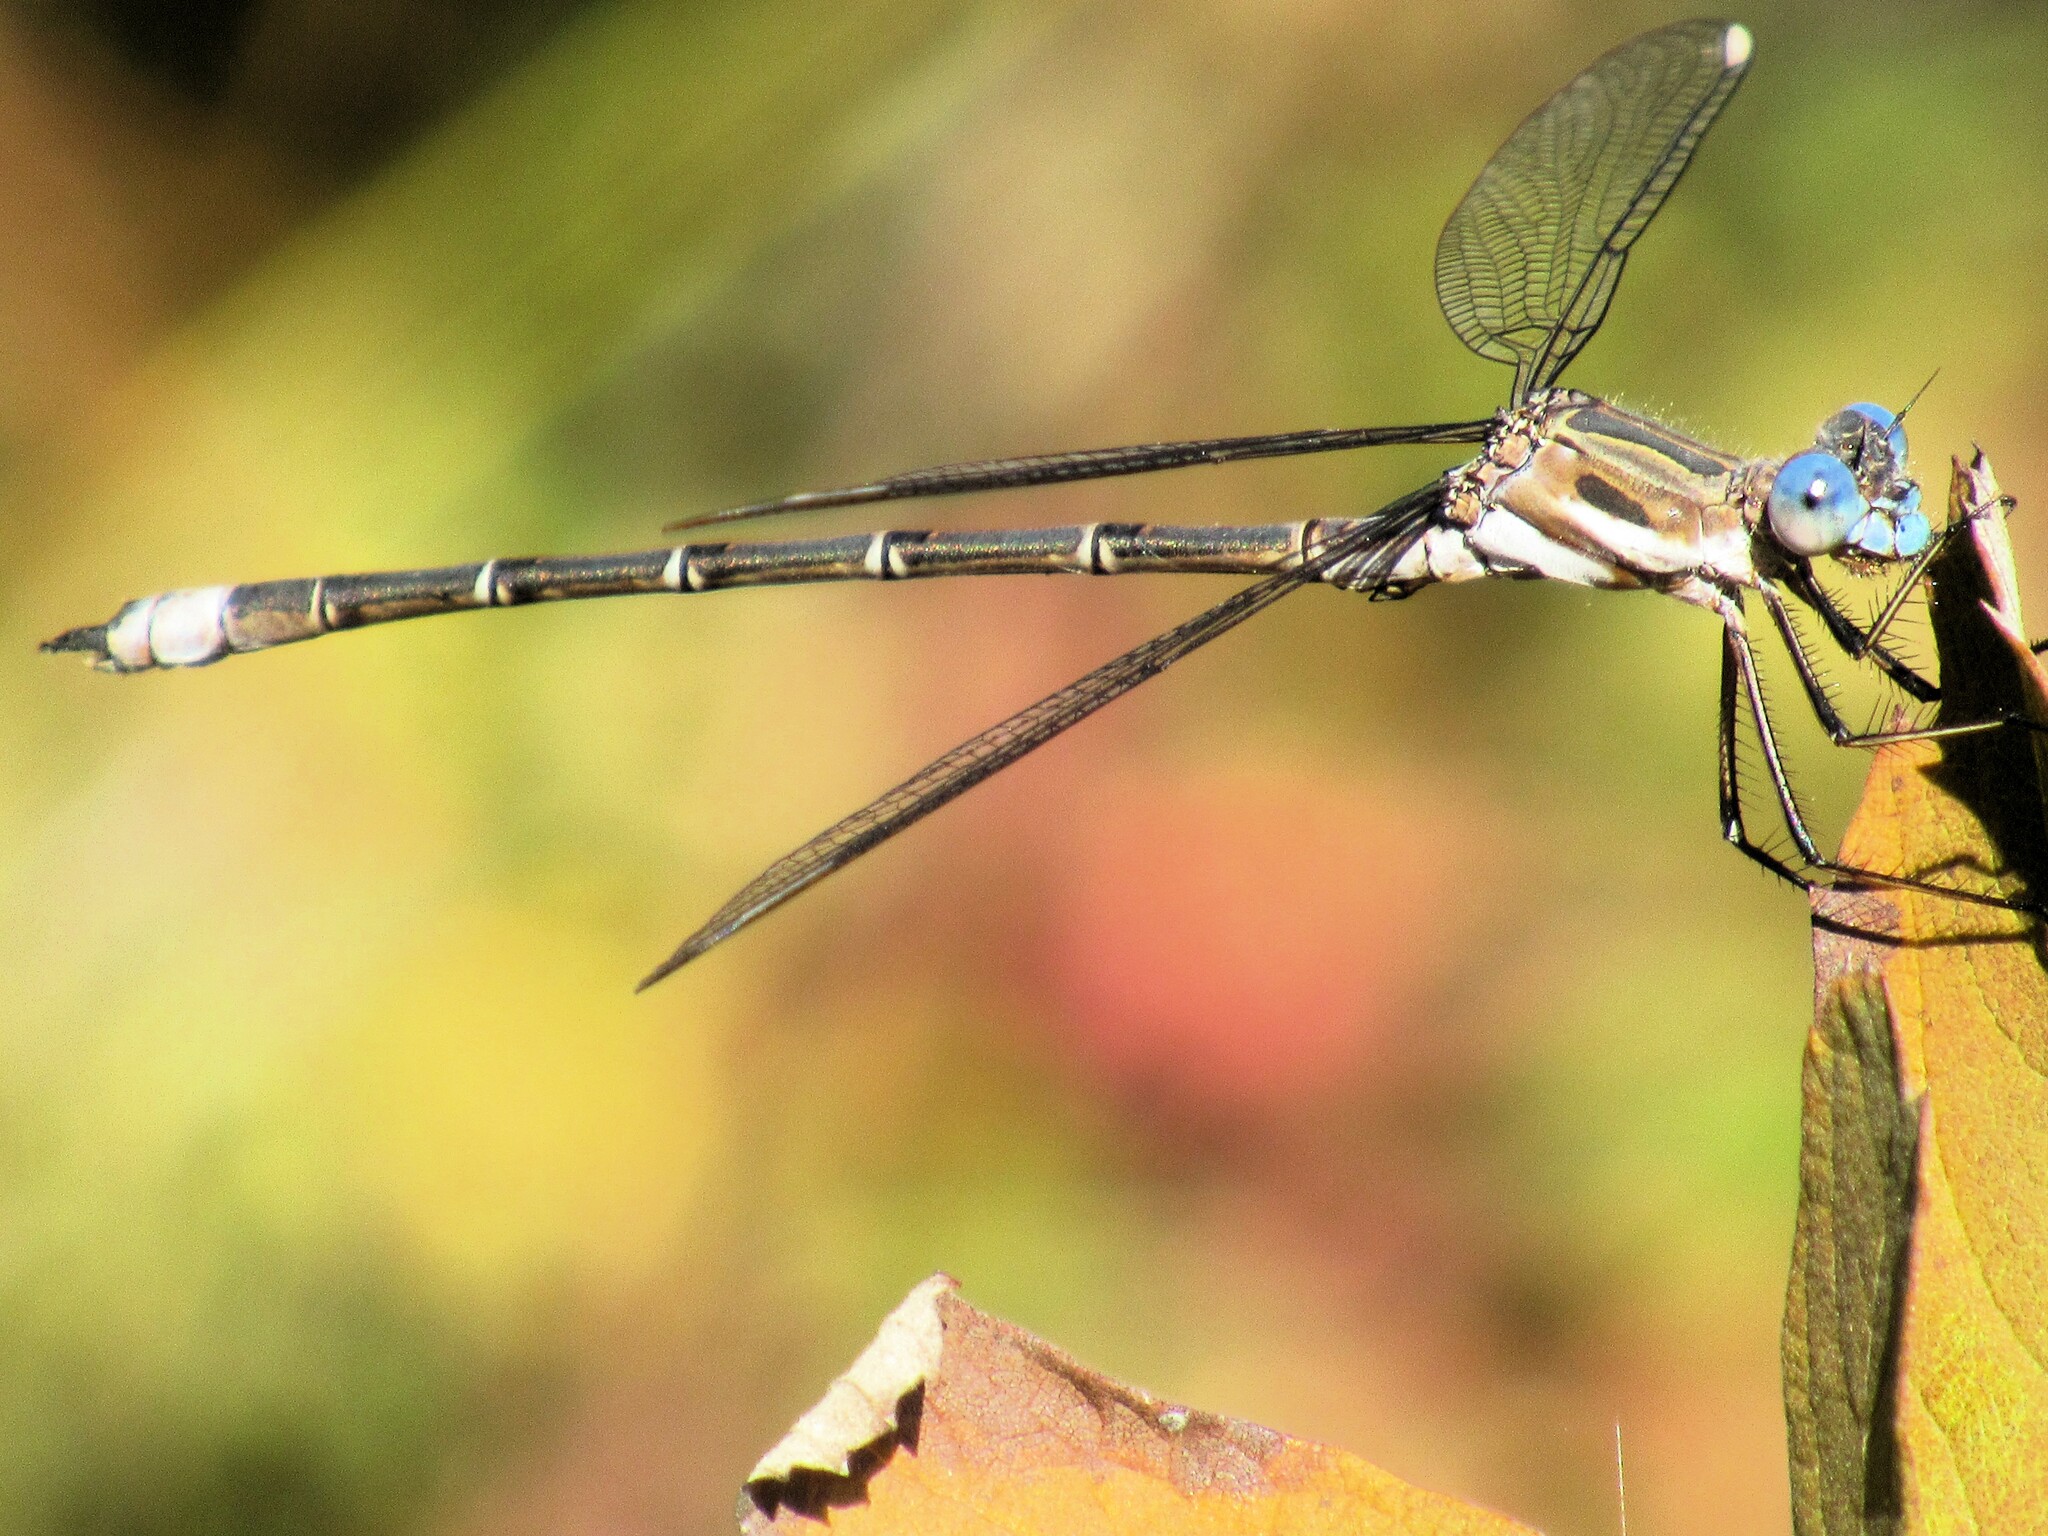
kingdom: Animalia
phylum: Arthropoda
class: Insecta
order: Odonata
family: Lestidae
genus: Archilestes
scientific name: Archilestes californicus
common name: California spreadwing
